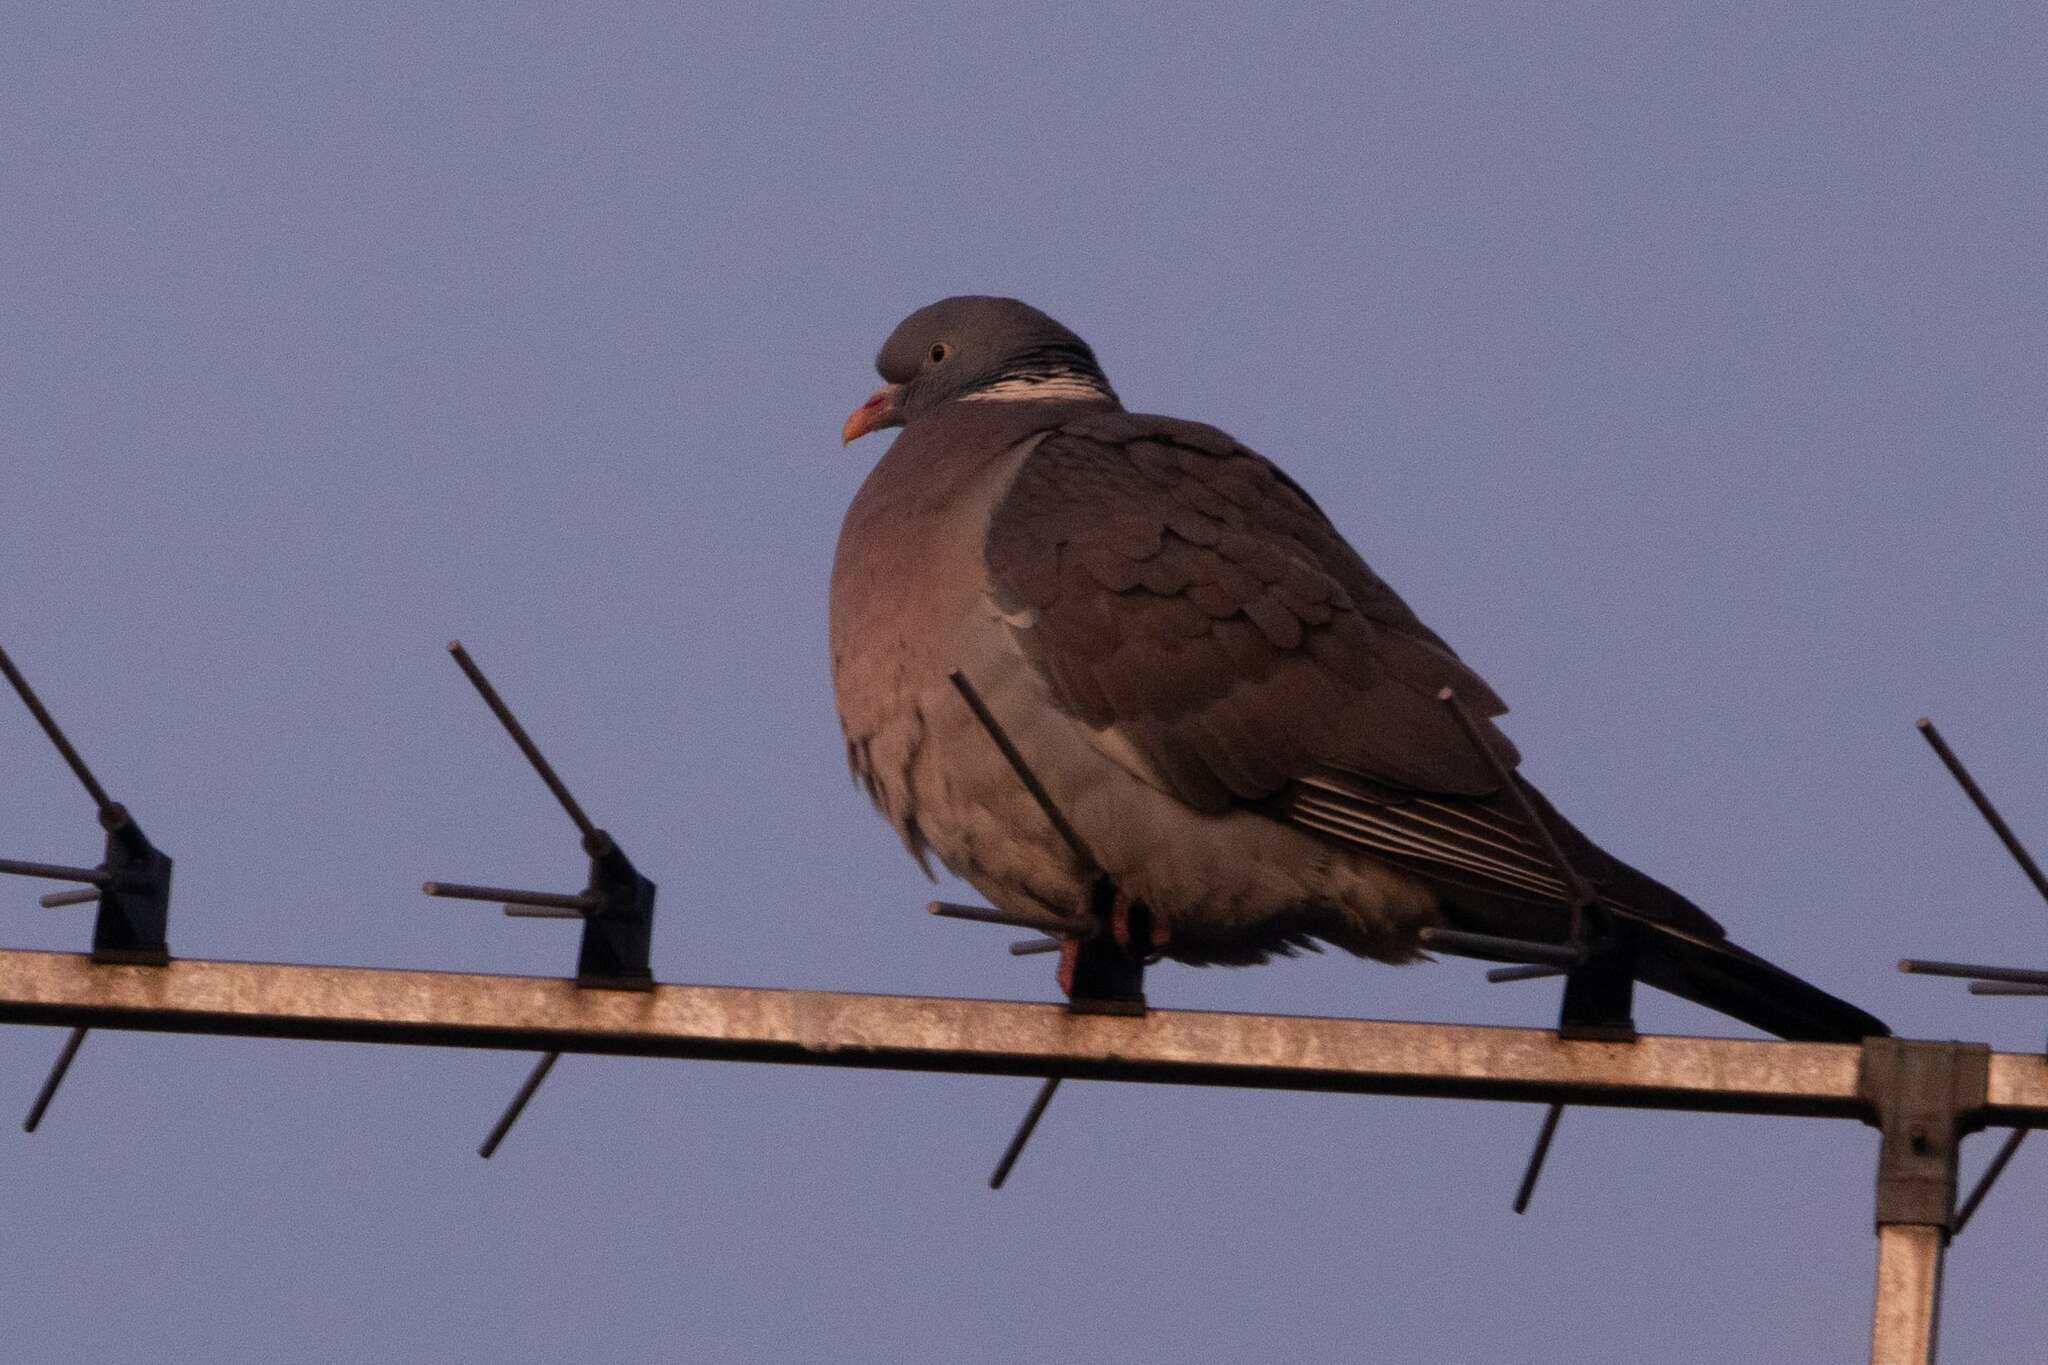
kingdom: Animalia
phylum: Chordata
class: Aves
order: Columbiformes
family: Columbidae
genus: Columba
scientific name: Columba palumbus
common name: Common wood pigeon
